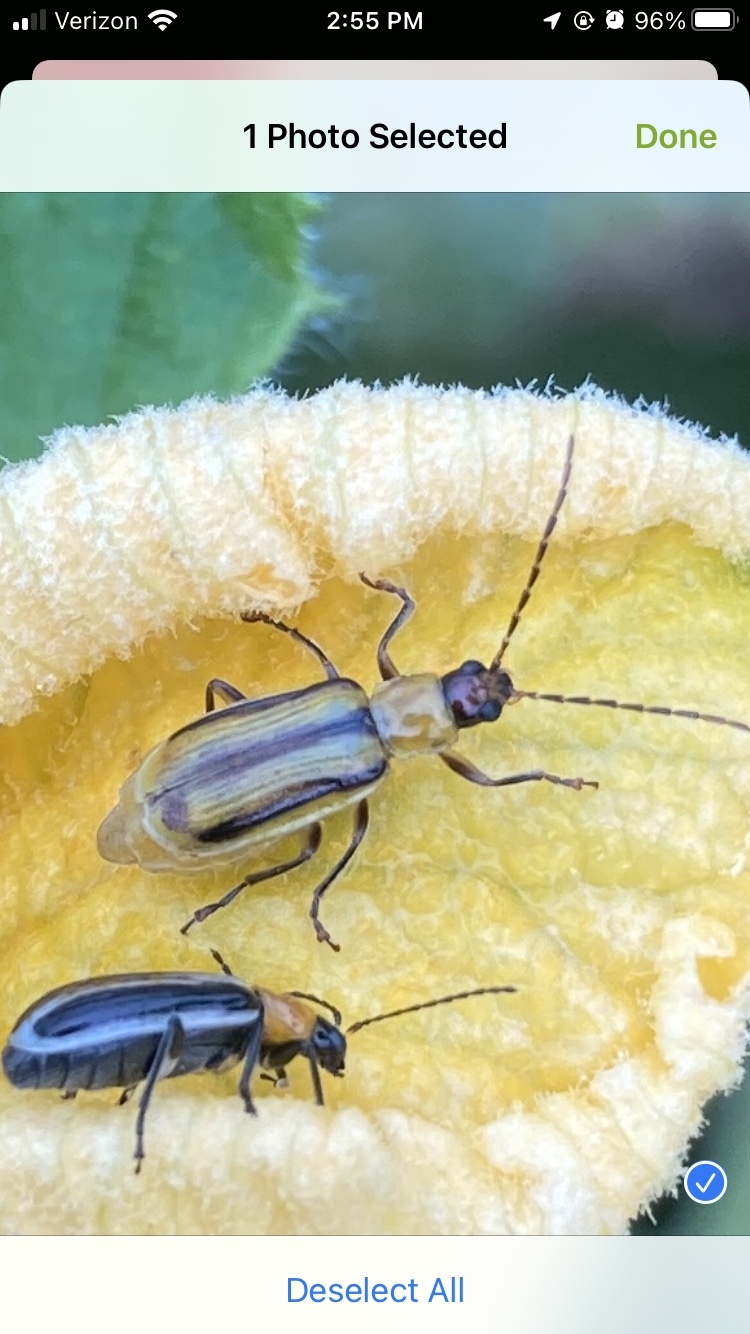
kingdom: Animalia
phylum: Arthropoda
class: Insecta
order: Coleoptera
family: Chrysomelidae
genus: Diabrotica
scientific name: Diabrotica virgifera
